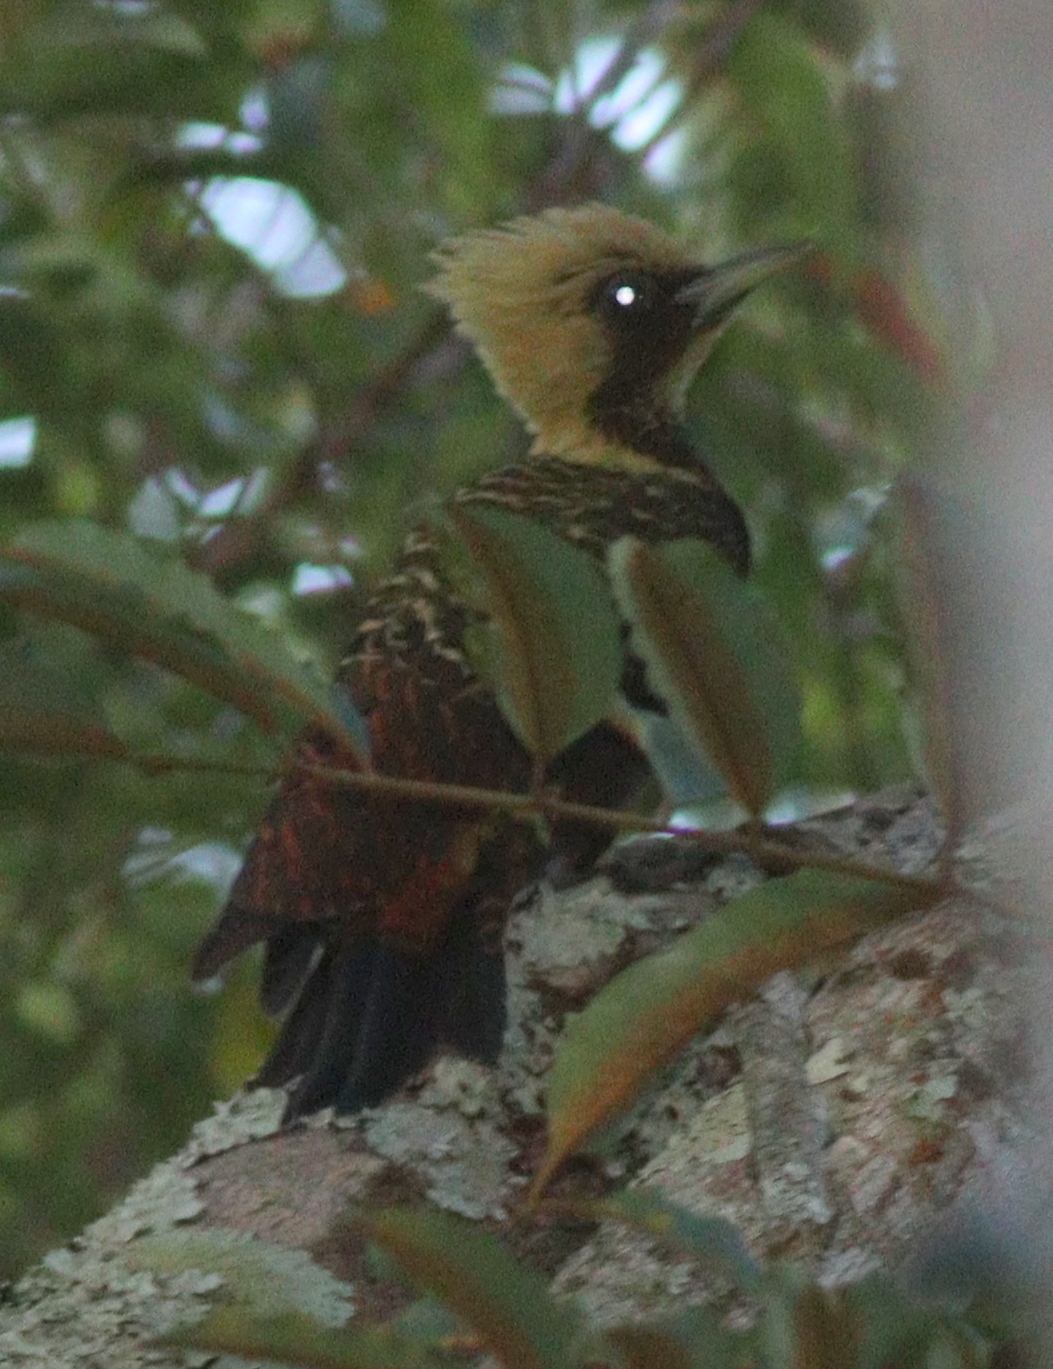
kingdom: Animalia
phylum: Chordata
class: Aves
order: Piciformes
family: Picidae
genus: Celeus
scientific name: Celeus lugubris
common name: Pale-crested woodpecker
